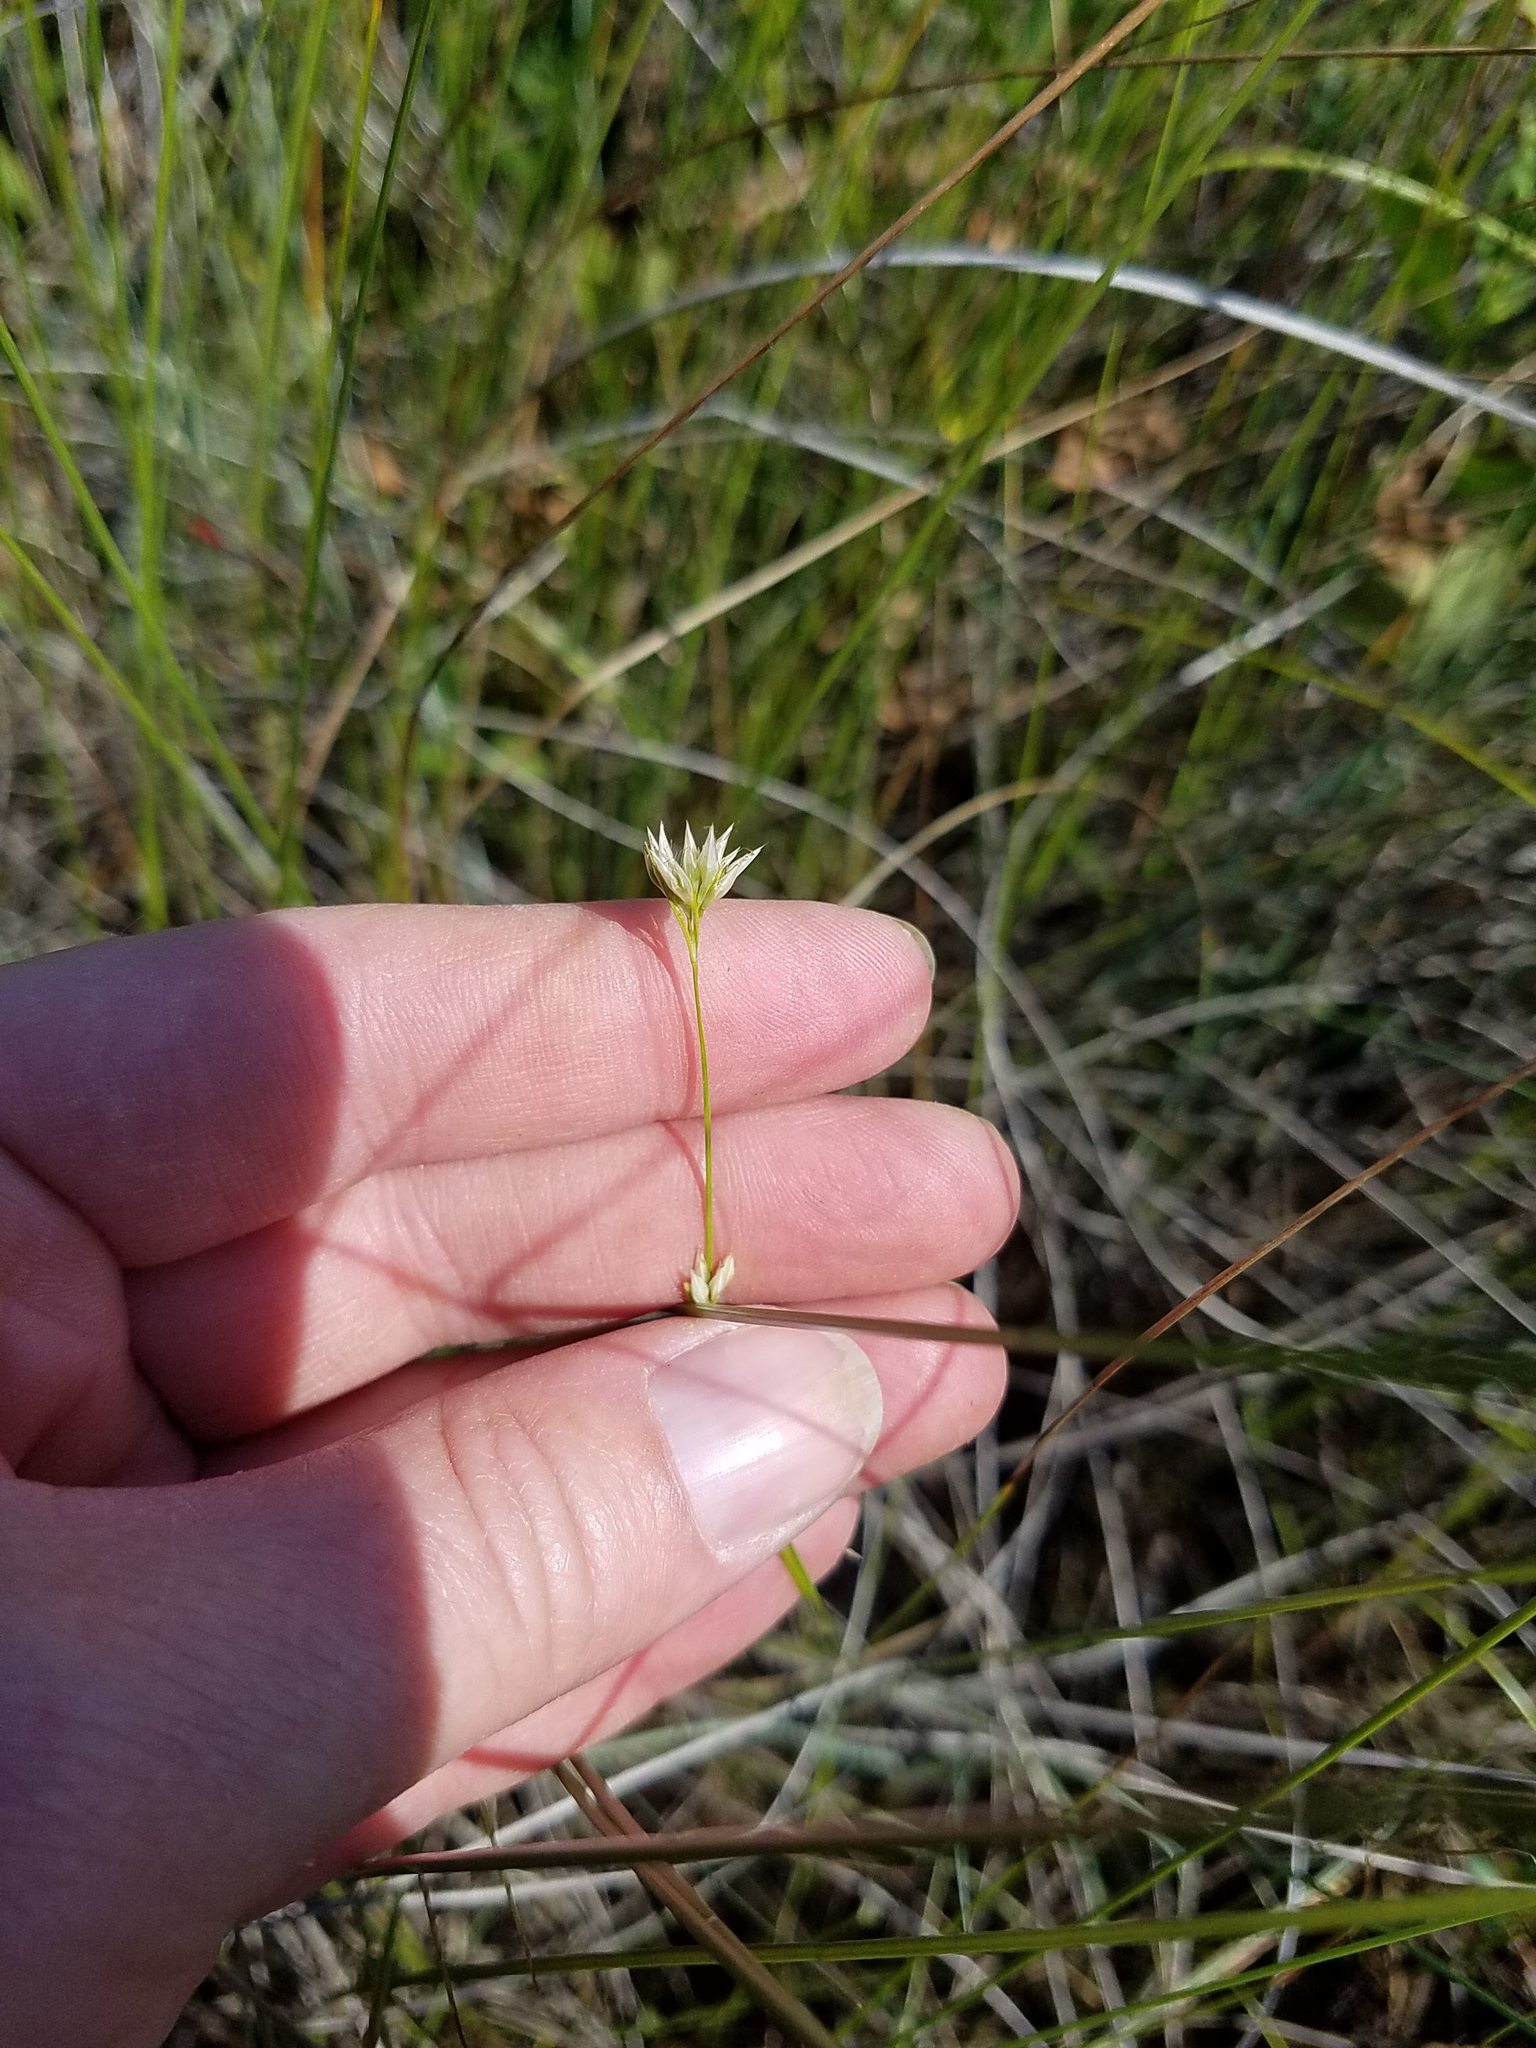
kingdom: Plantae
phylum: Tracheophyta
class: Liliopsida
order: Poales
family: Cyperaceae
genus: Rhynchospora
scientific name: Rhynchospora alba
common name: White beak-sedge
